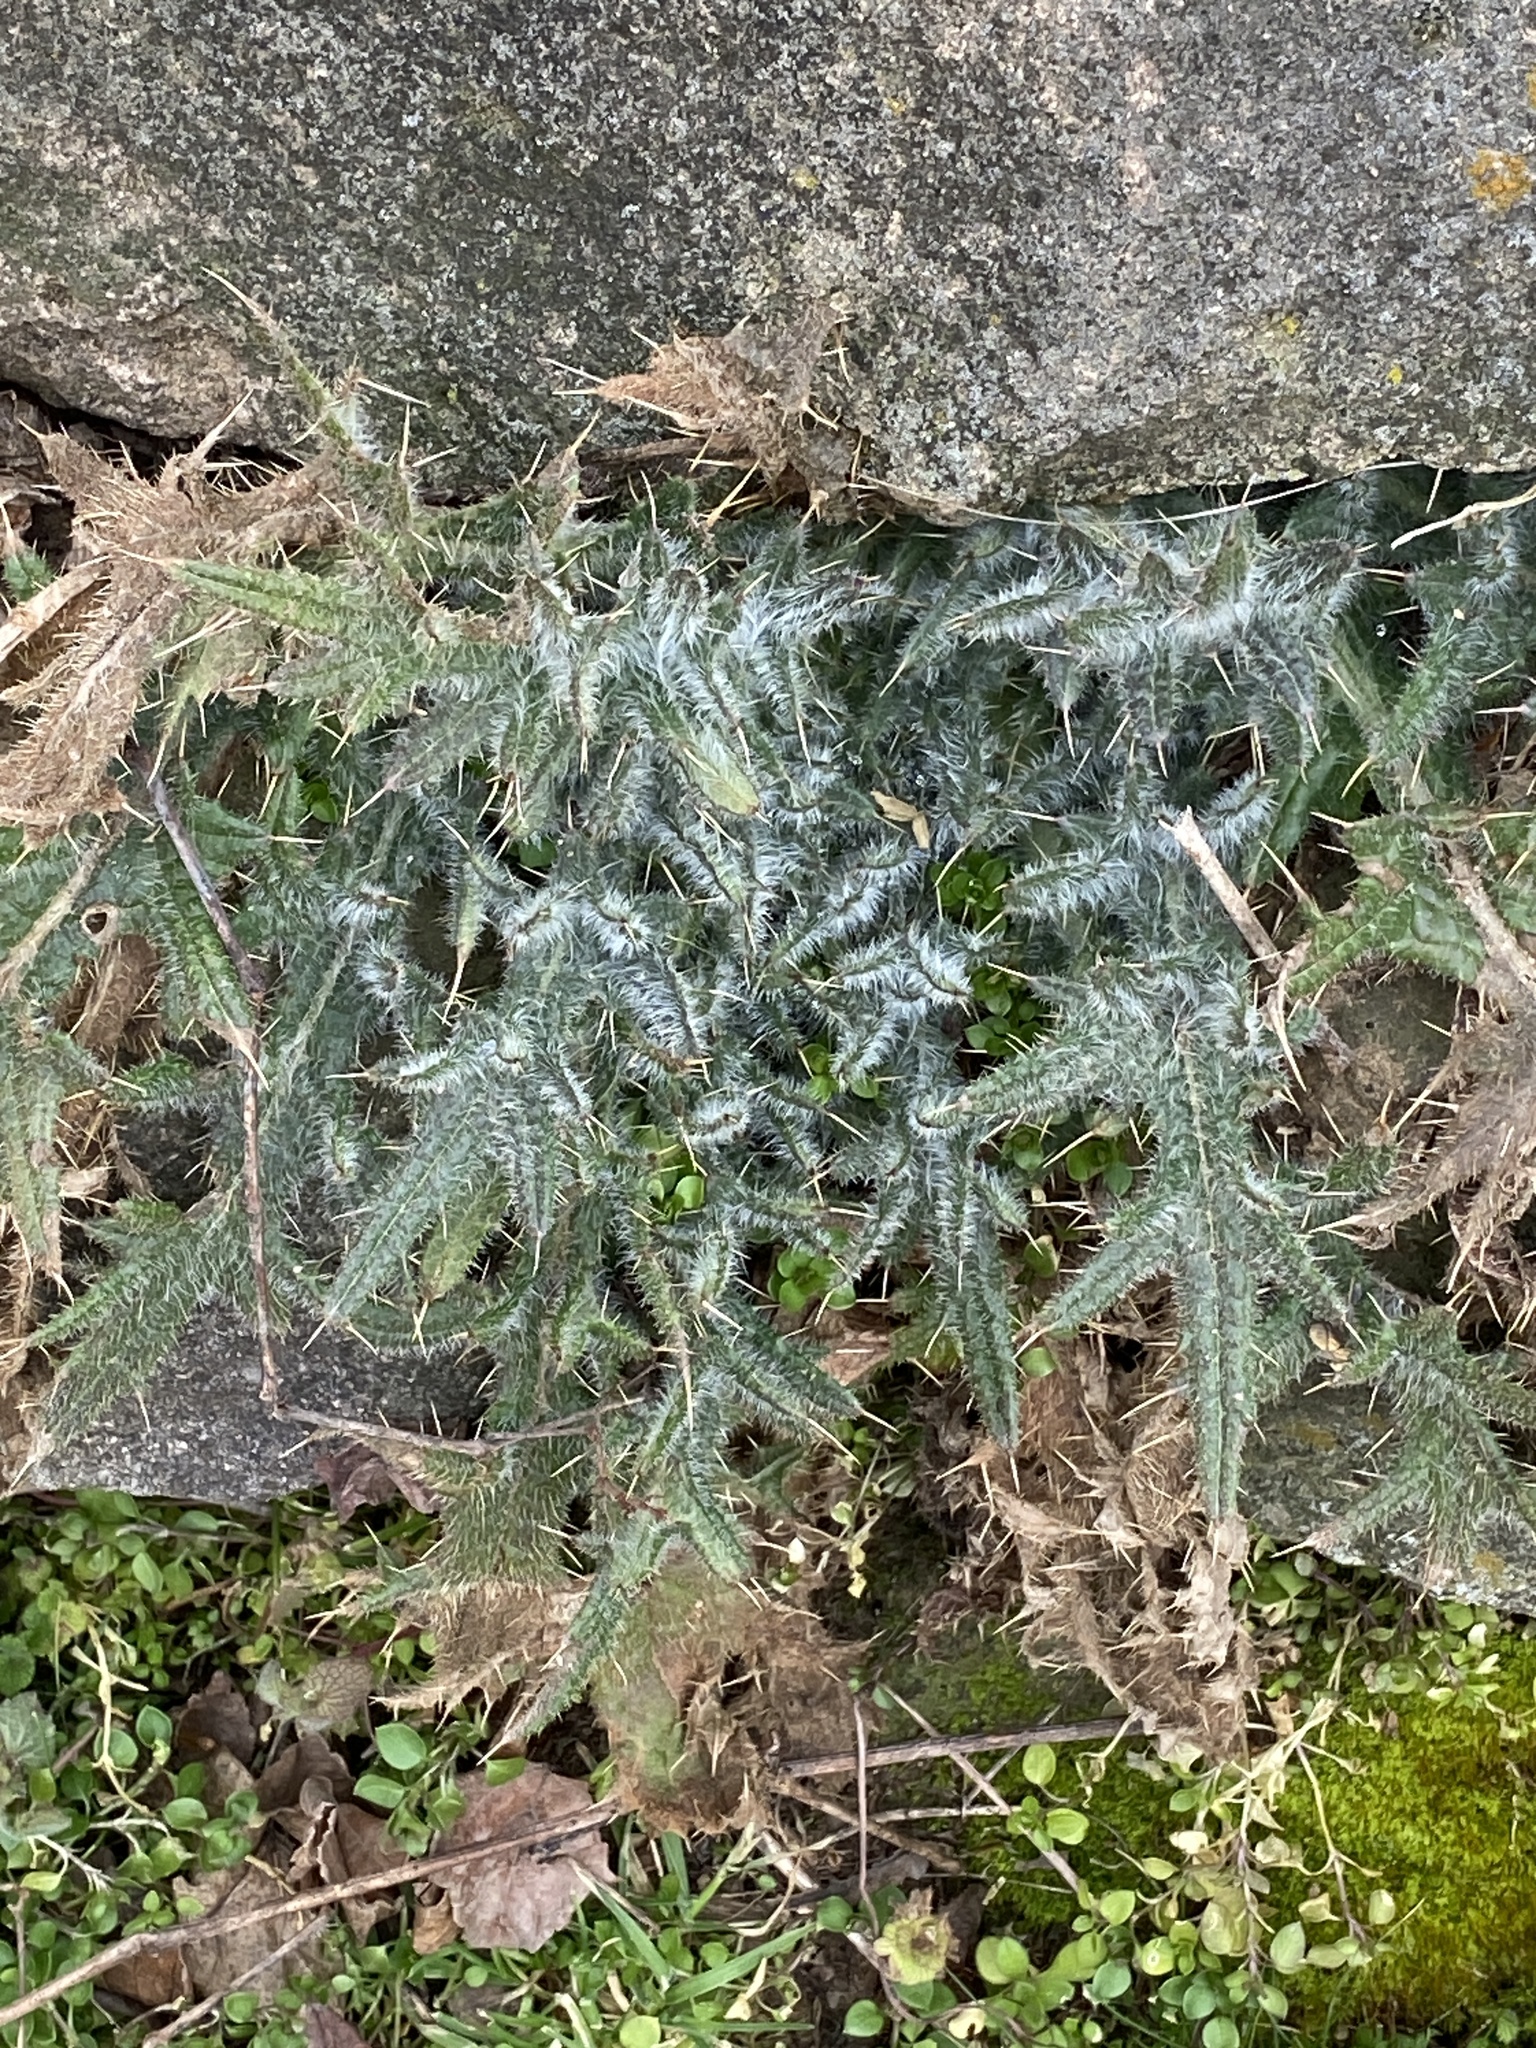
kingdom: Plantae
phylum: Tracheophyta
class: Magnoliopsida
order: Asterales
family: Asteraceae
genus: Cirsium
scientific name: Cirsium vulgare
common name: Bull thistle
